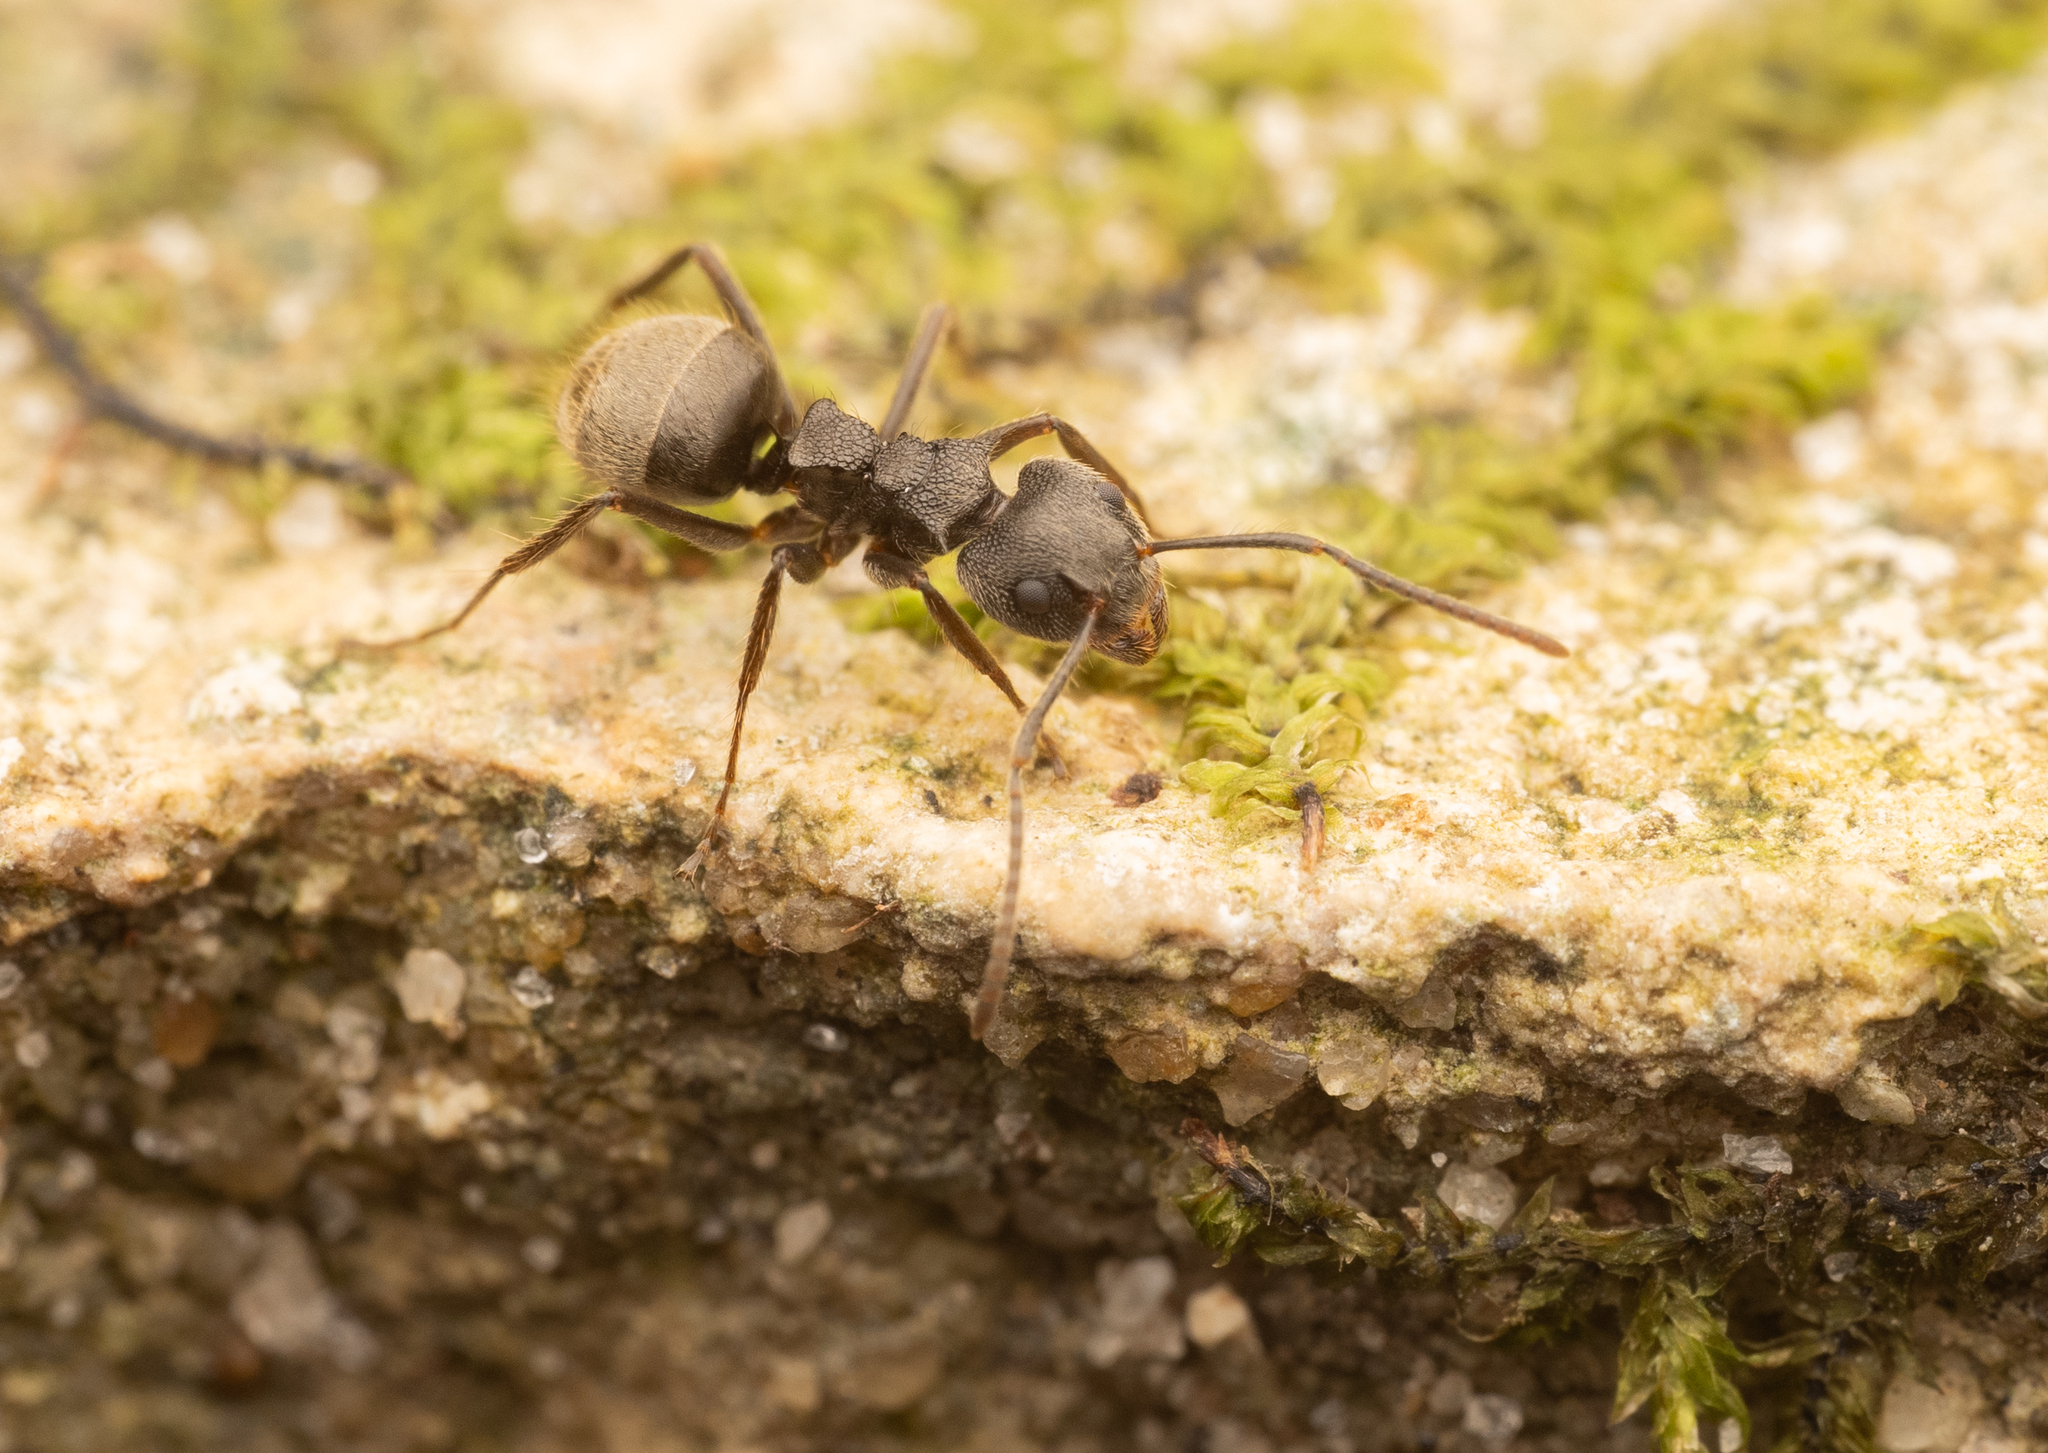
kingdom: Animalia
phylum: Arthropoda
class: Insecta
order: Hymenoptera
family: Formicidae
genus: Dolichoderus
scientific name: Dolichoderus bispinosus
